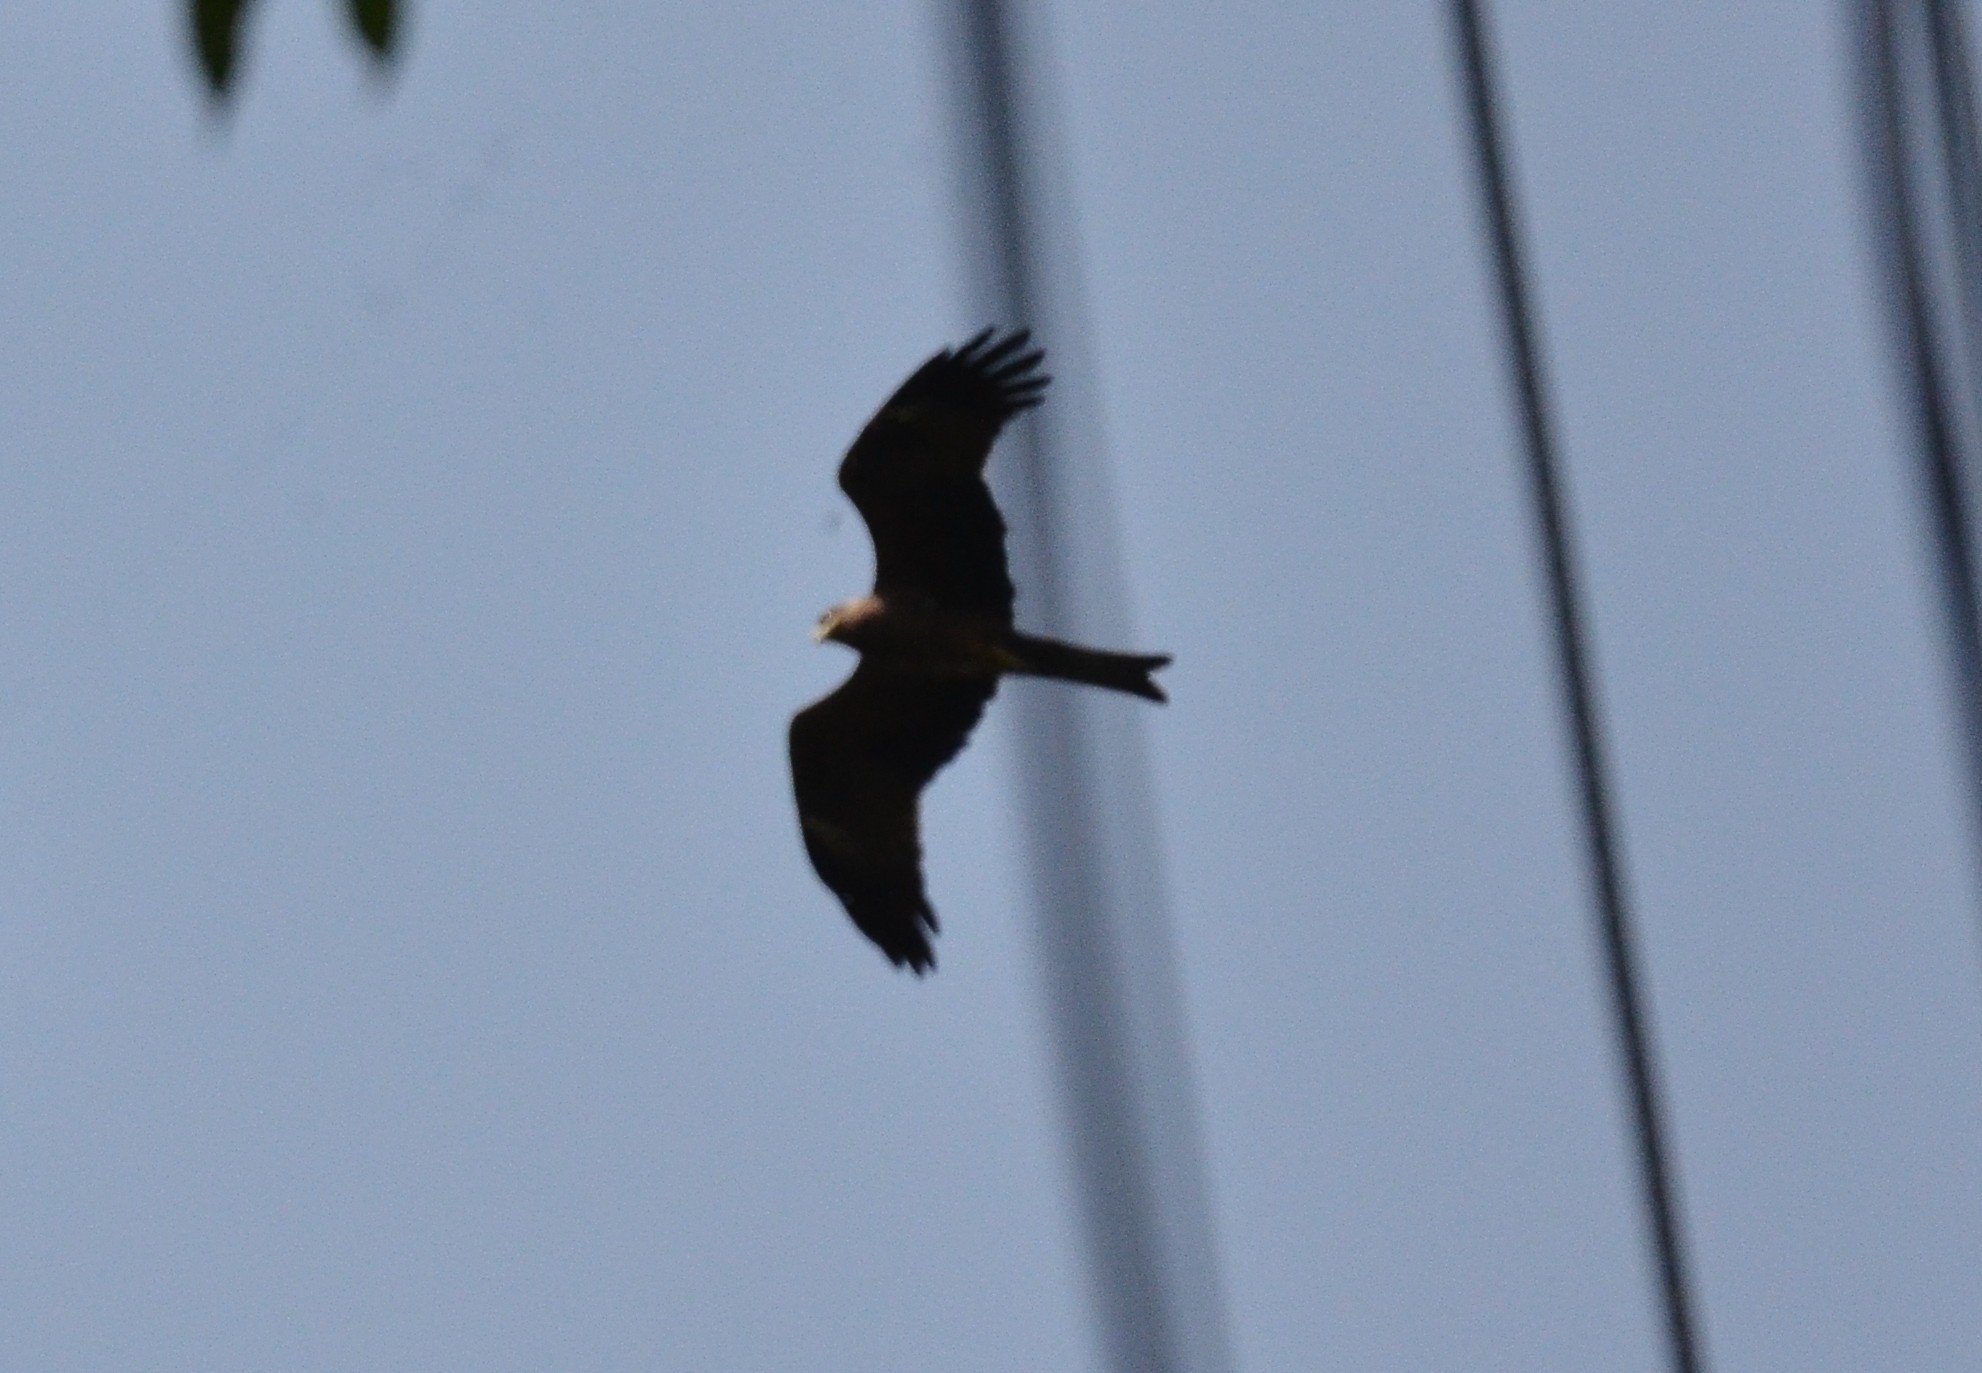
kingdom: Animalia
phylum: Chordata
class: Aves
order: Accipitriformes
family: Accipitridae
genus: Milvus
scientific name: Milvus migrans
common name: Black kite
